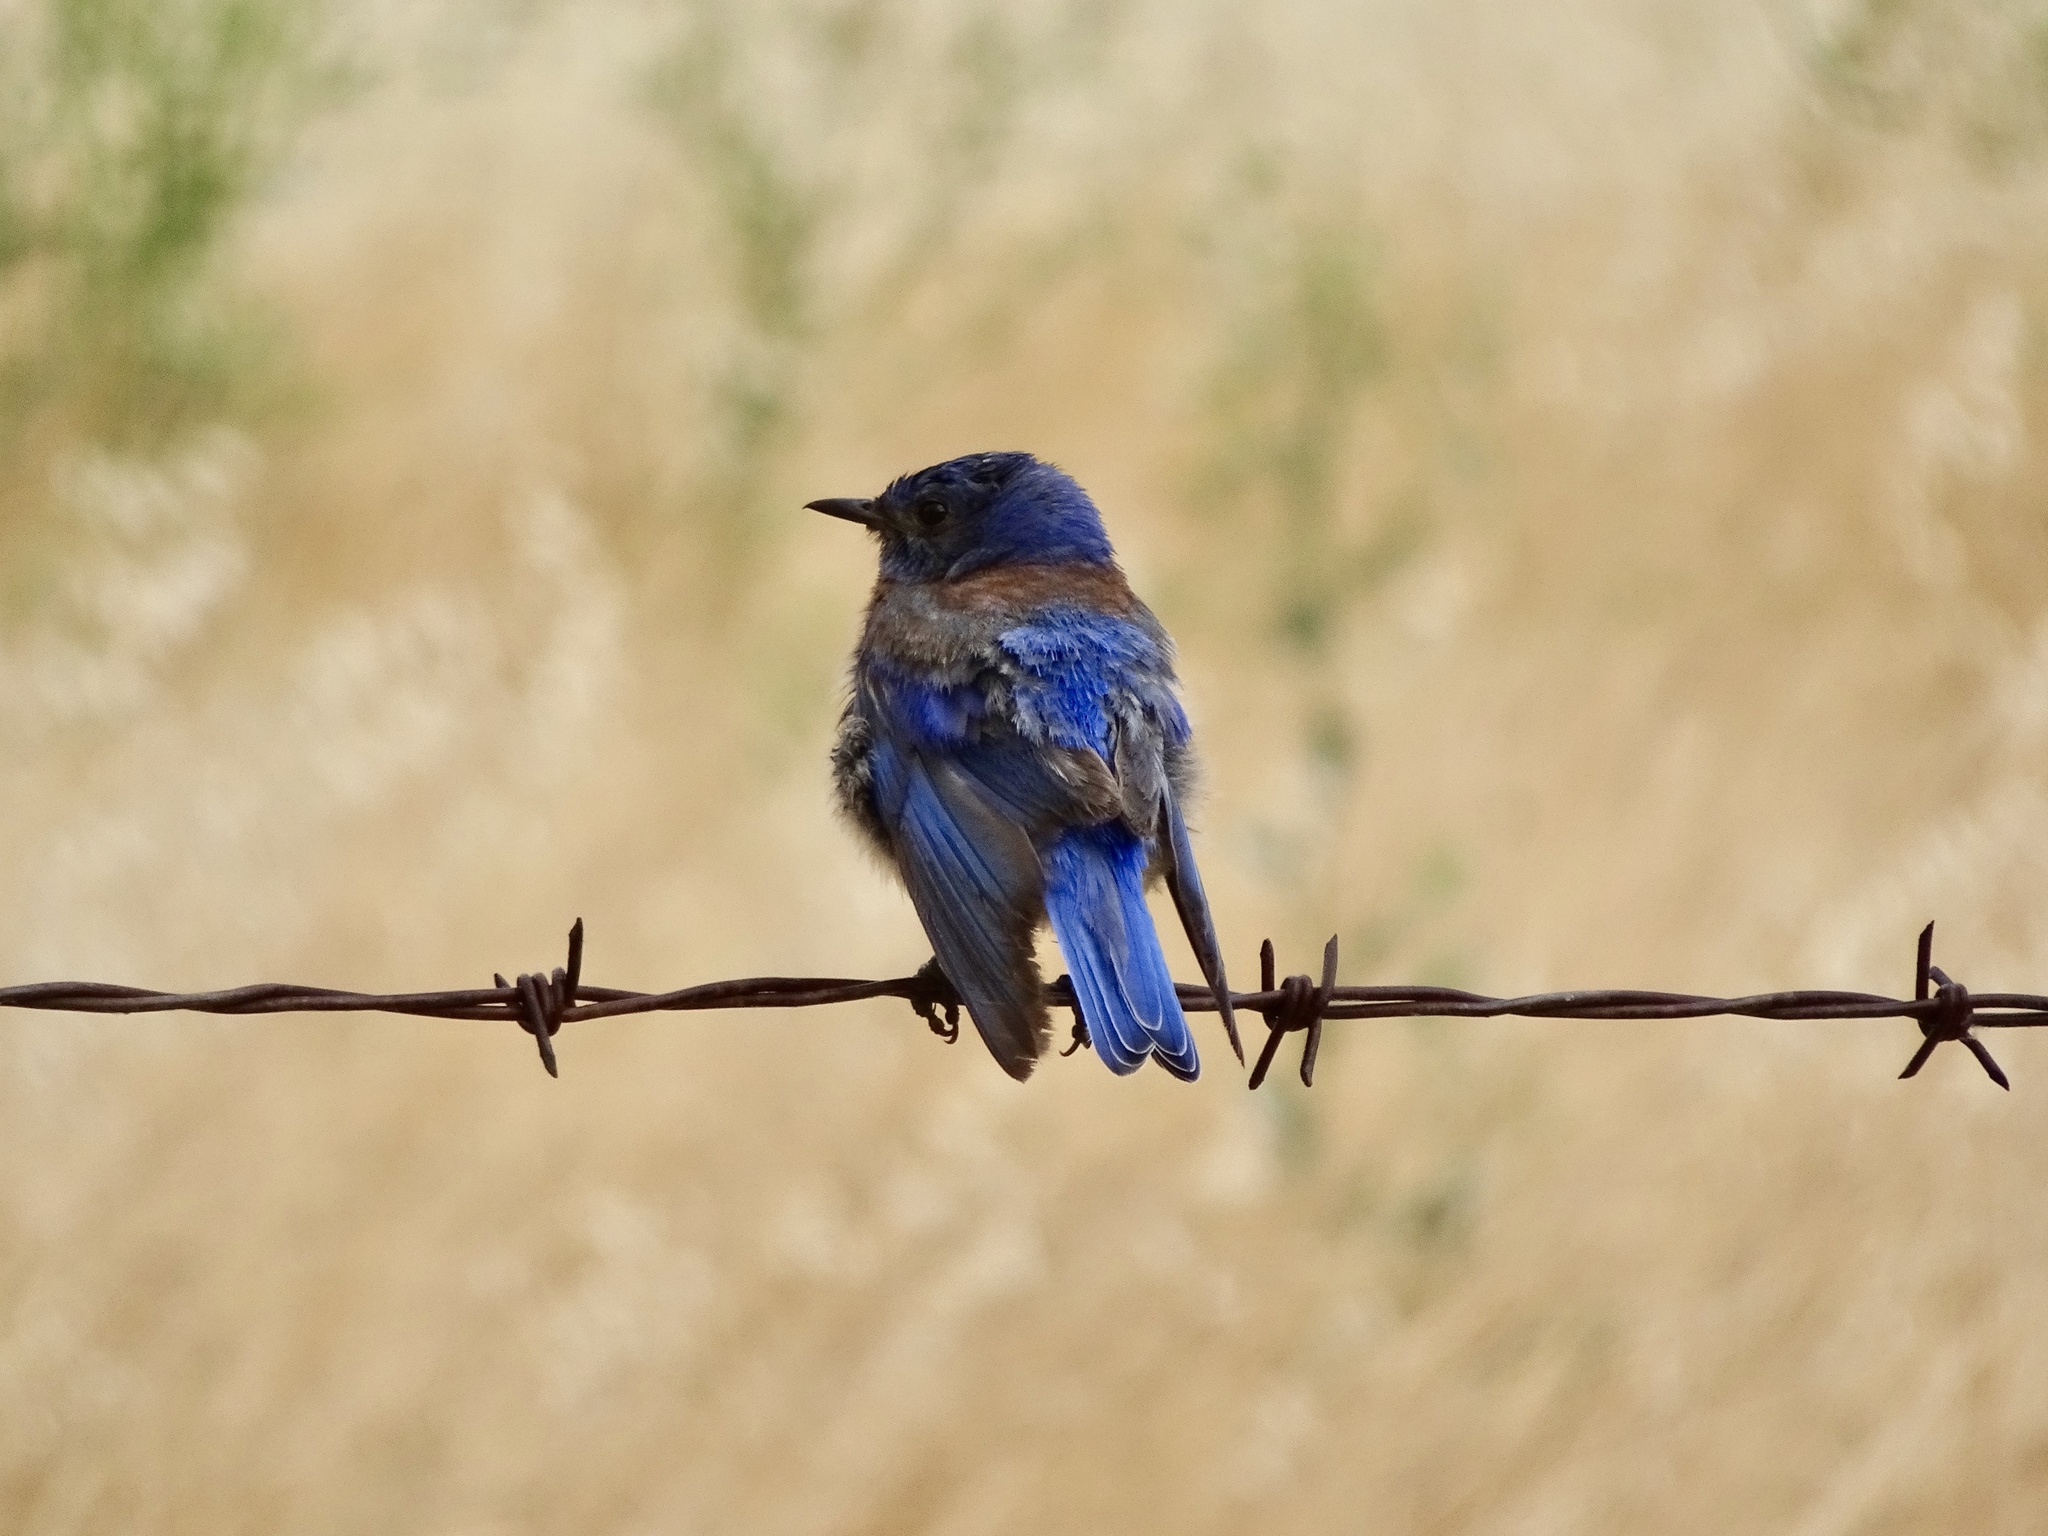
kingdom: Animalia
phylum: Chordata
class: Aves
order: Passeriformes
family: Turdidae
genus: Sialia
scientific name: Sialia mexicana
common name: Western bluebird
